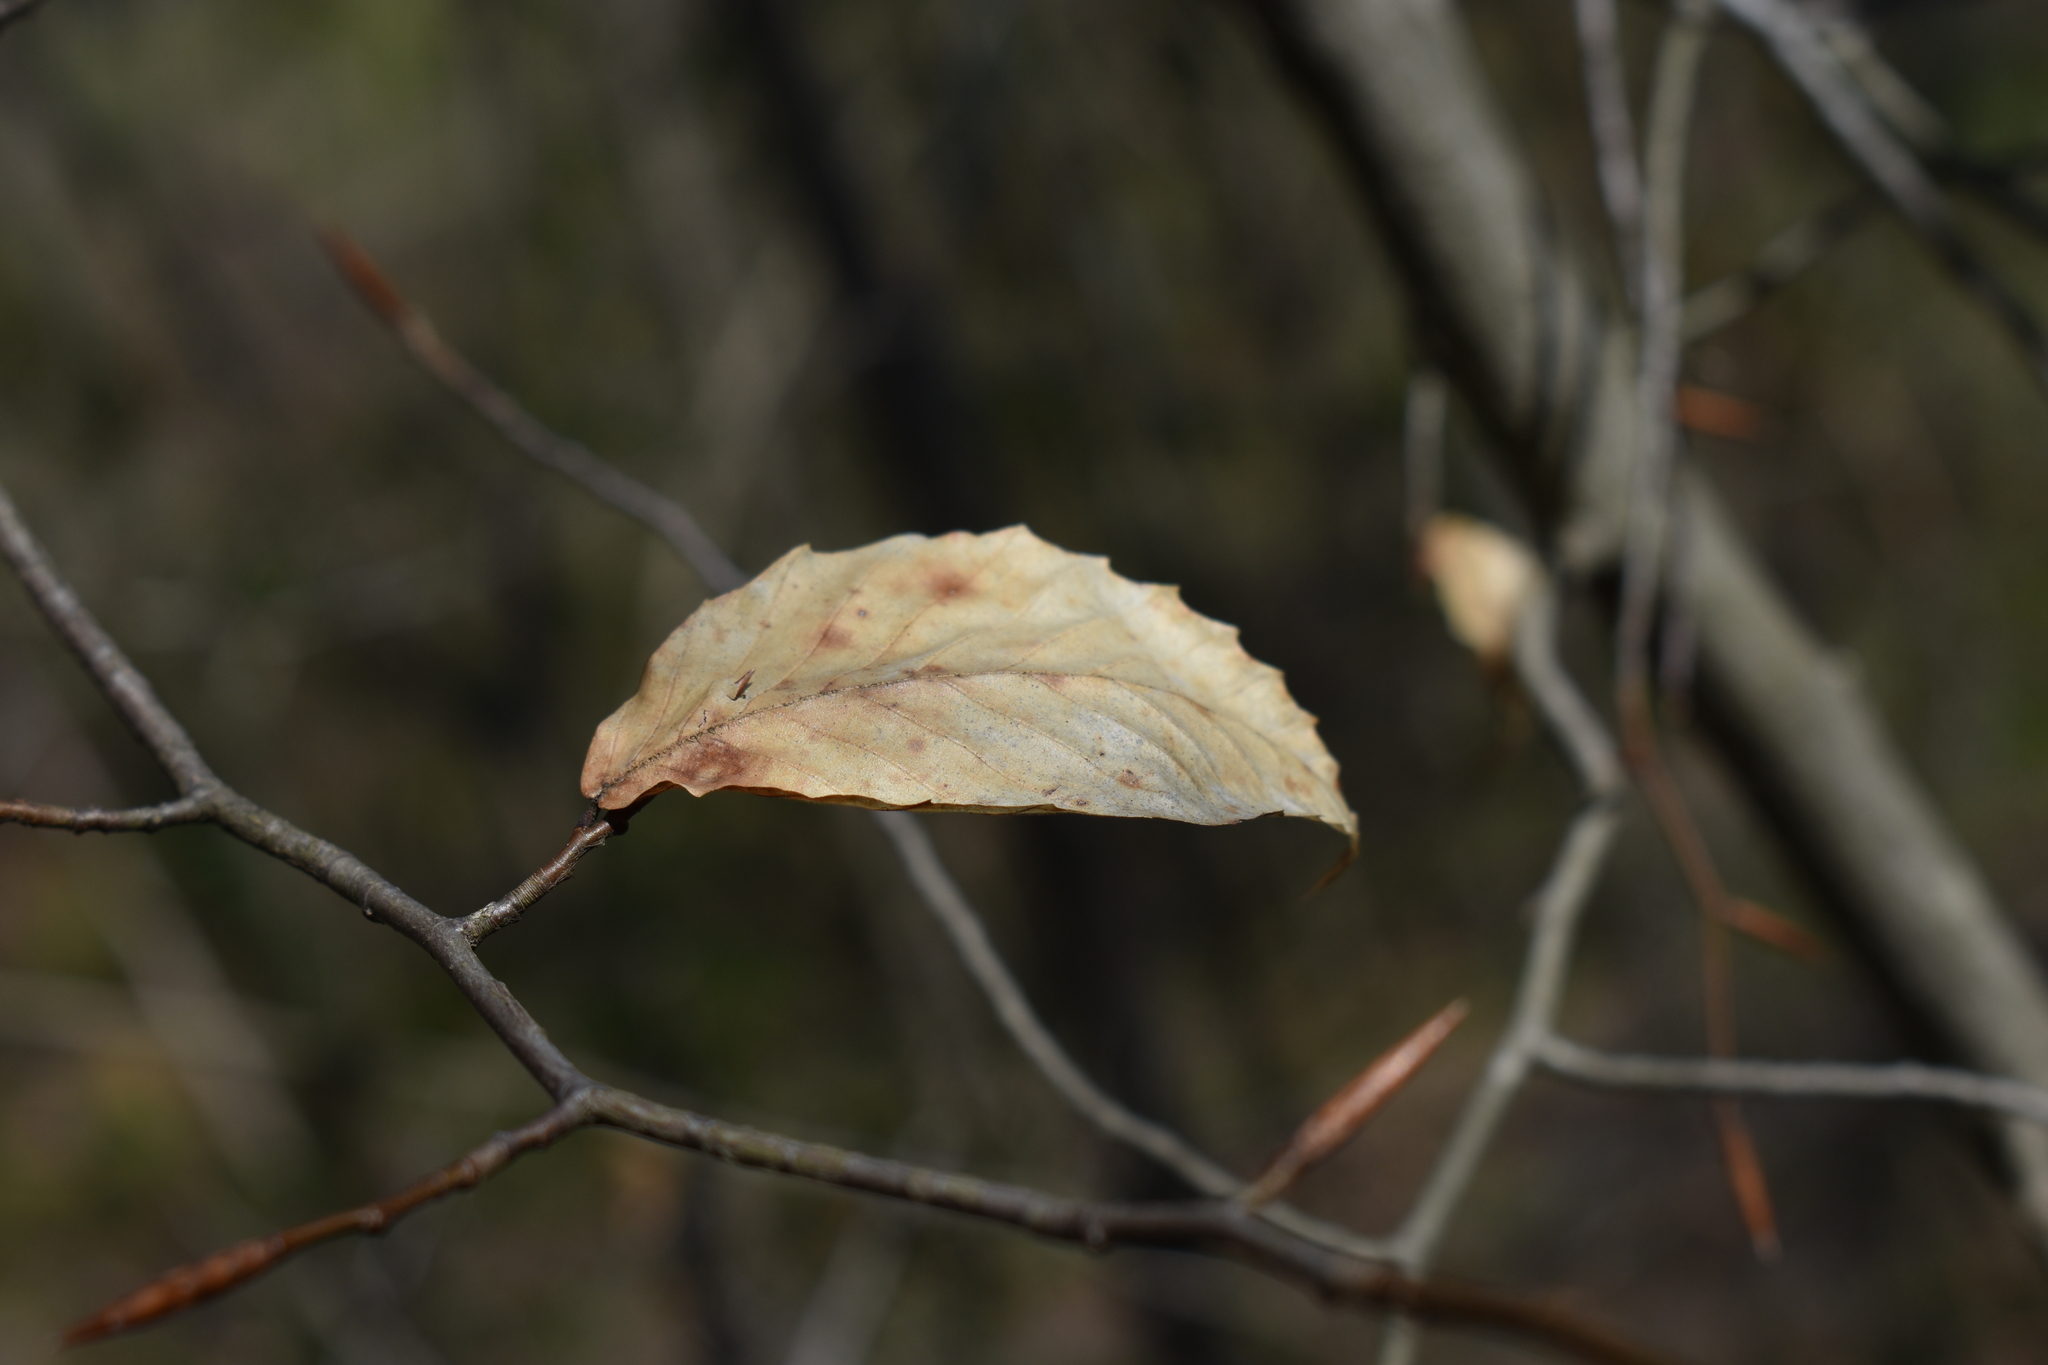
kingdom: Plantae
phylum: Tracheophyta
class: Magnoliopsida
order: Fagales
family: Fagaceae
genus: Fagus
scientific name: Fagus grandifolia
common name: American beech
